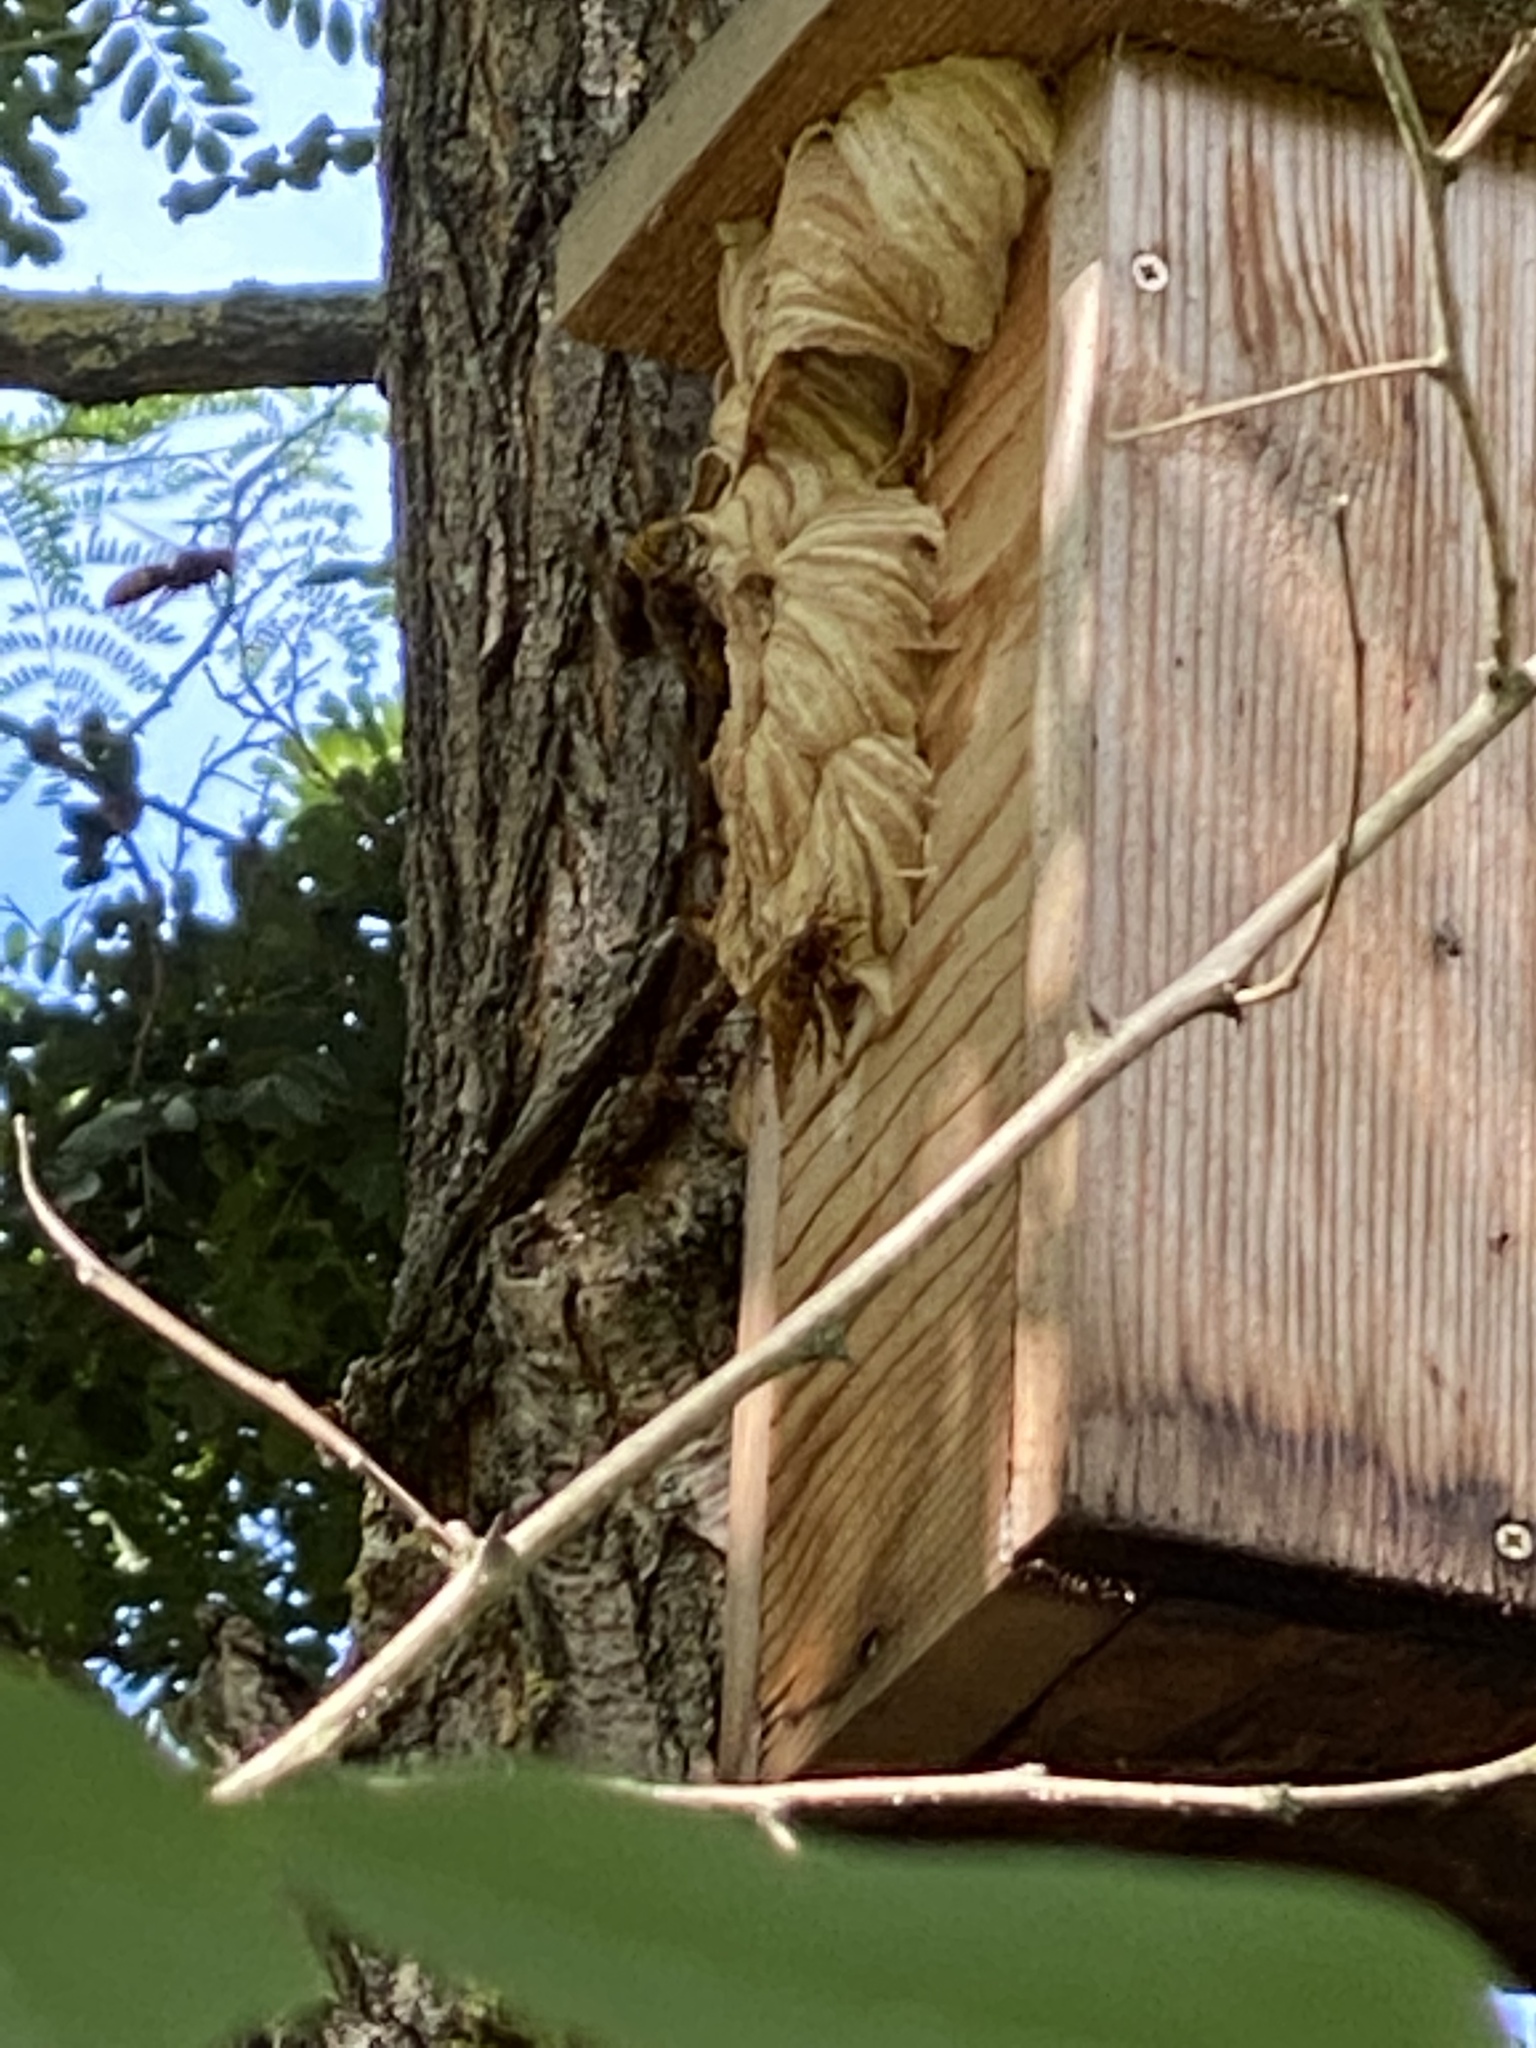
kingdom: Animalia
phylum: Arthropoda
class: Insecta
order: Hymenoptera
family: Vespidae
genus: Vespa
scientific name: Vespa crabro
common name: Hornet
